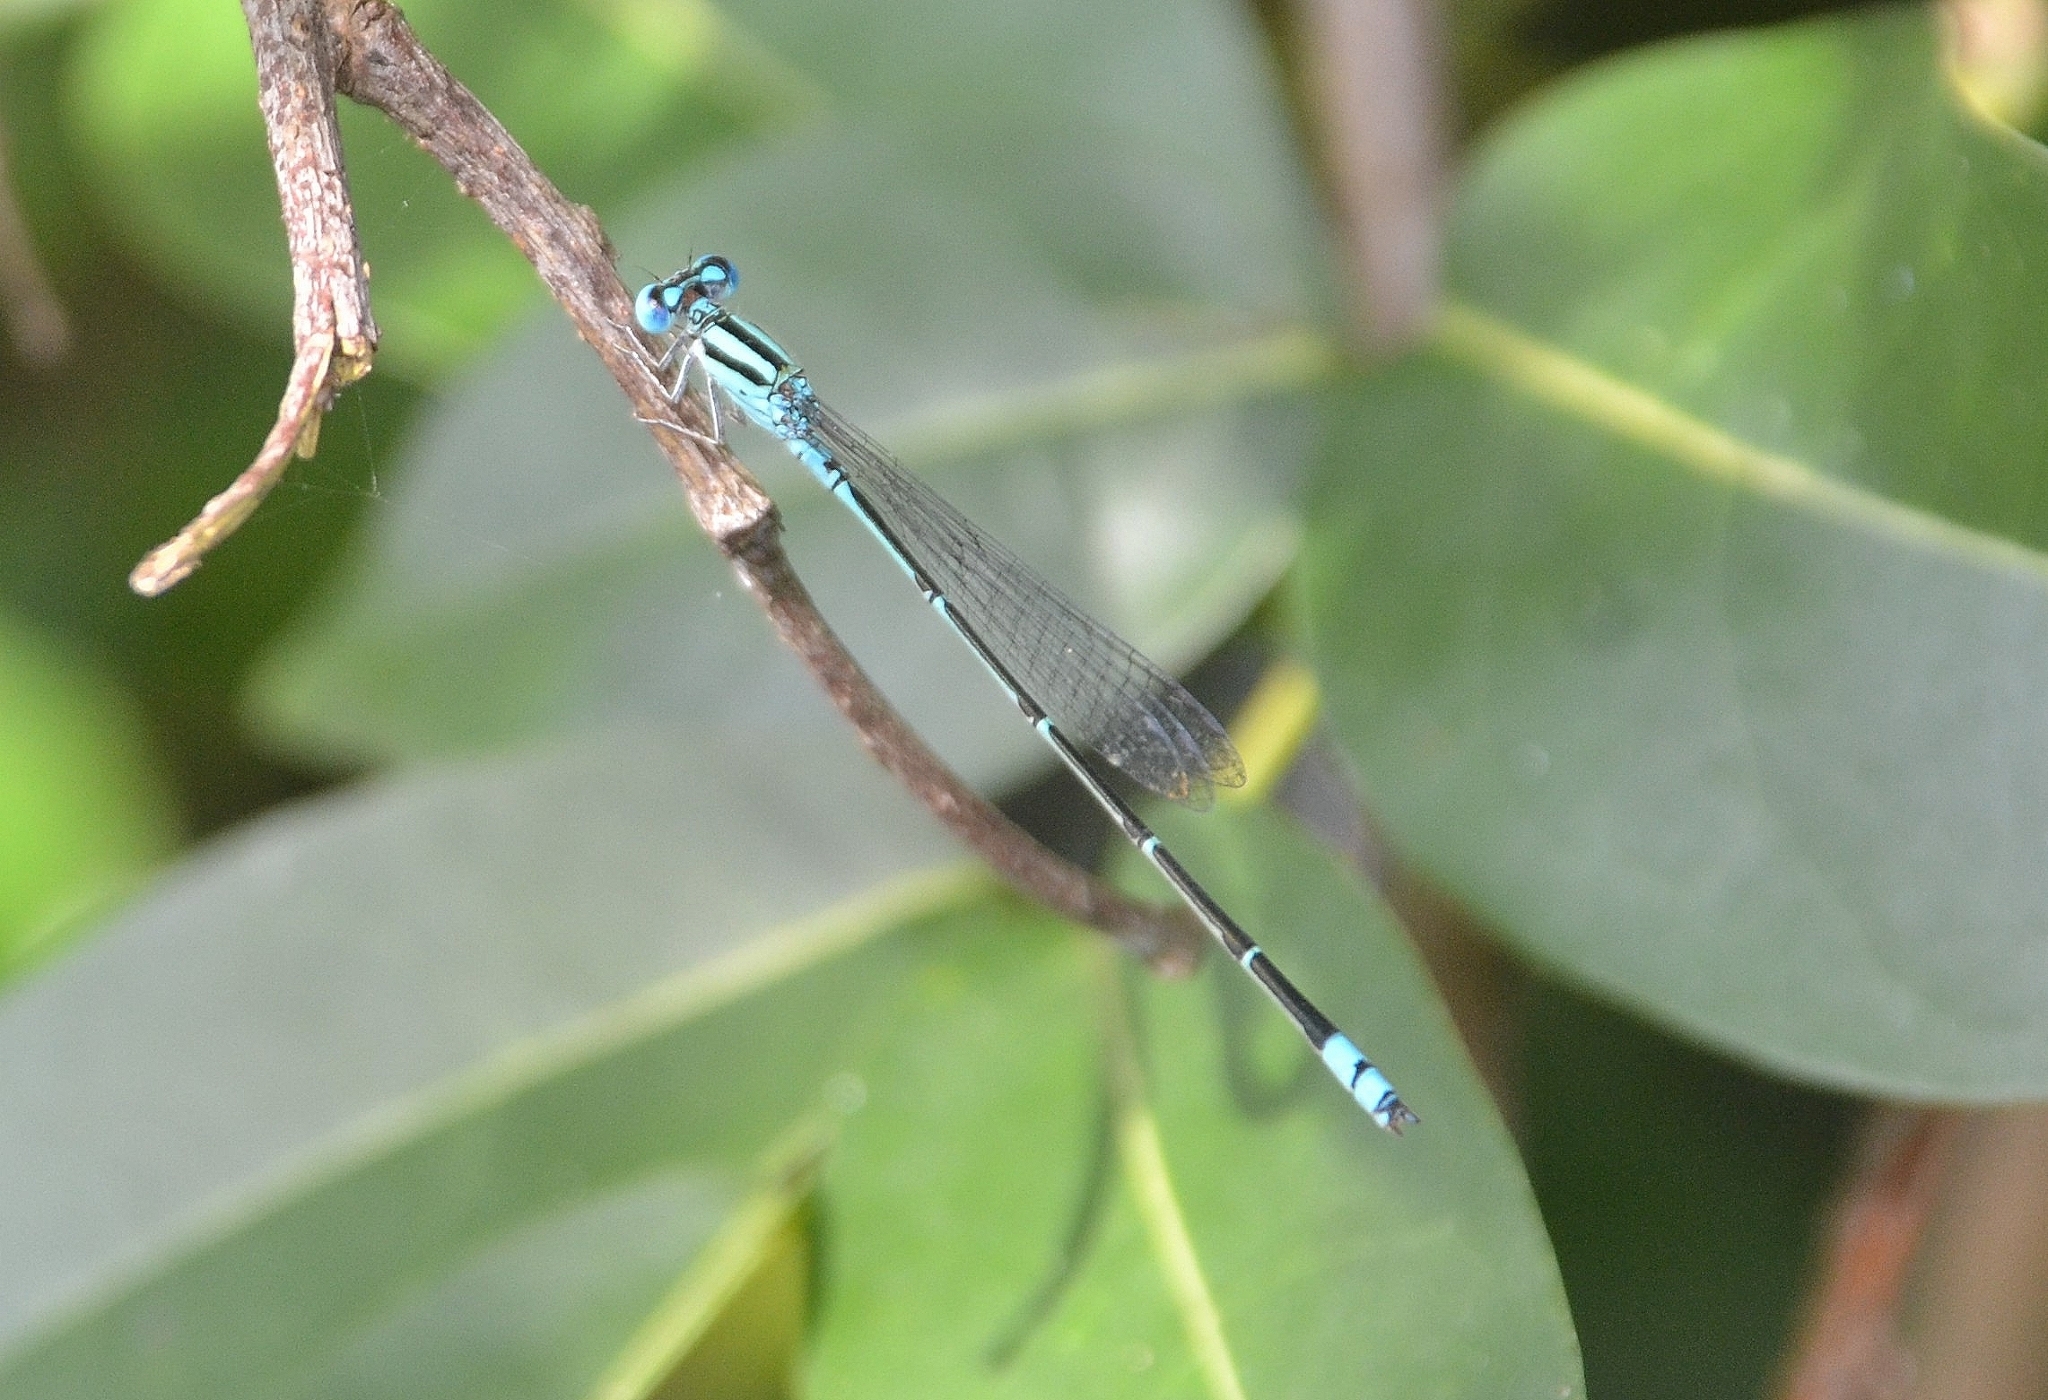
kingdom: Animalia
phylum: Arthropoda
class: Insecta
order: Odonata
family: Coenagrionidae
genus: Pseudagrion
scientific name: Pseudagrion microcephalum
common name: Blue riverdamsel
